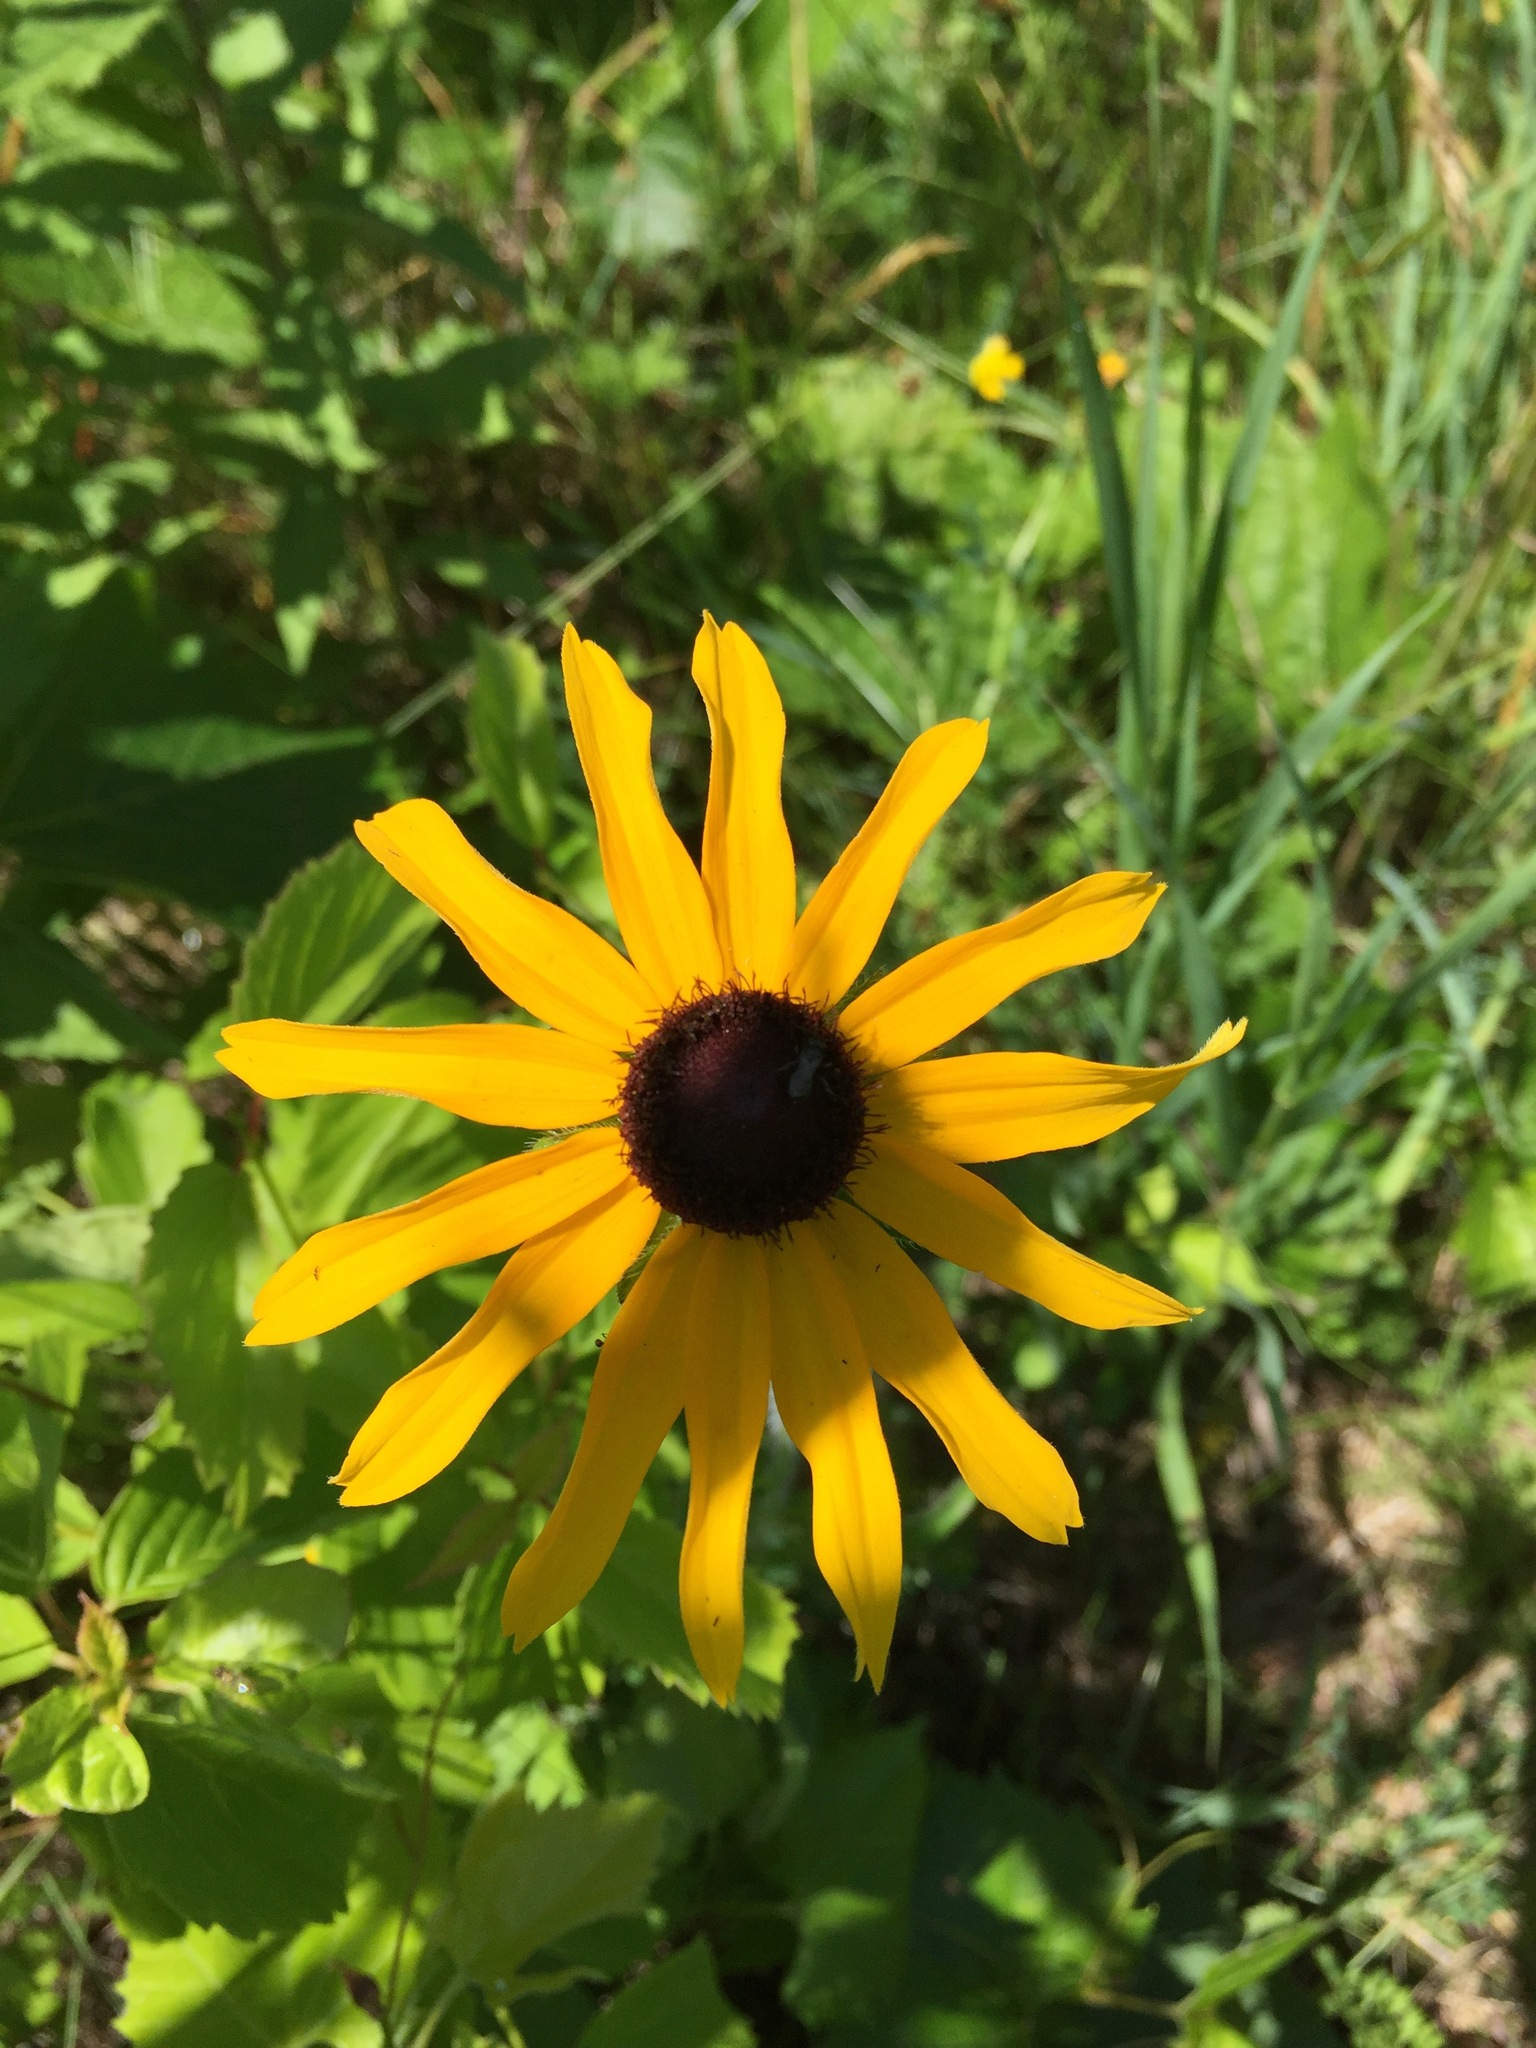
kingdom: Plantae
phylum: Tracheophyta
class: Magnoliopsida
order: Asterales
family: Asteraceae
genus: Rudbeckia
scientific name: Rudbeckia hirta
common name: Black-eyed-susan
